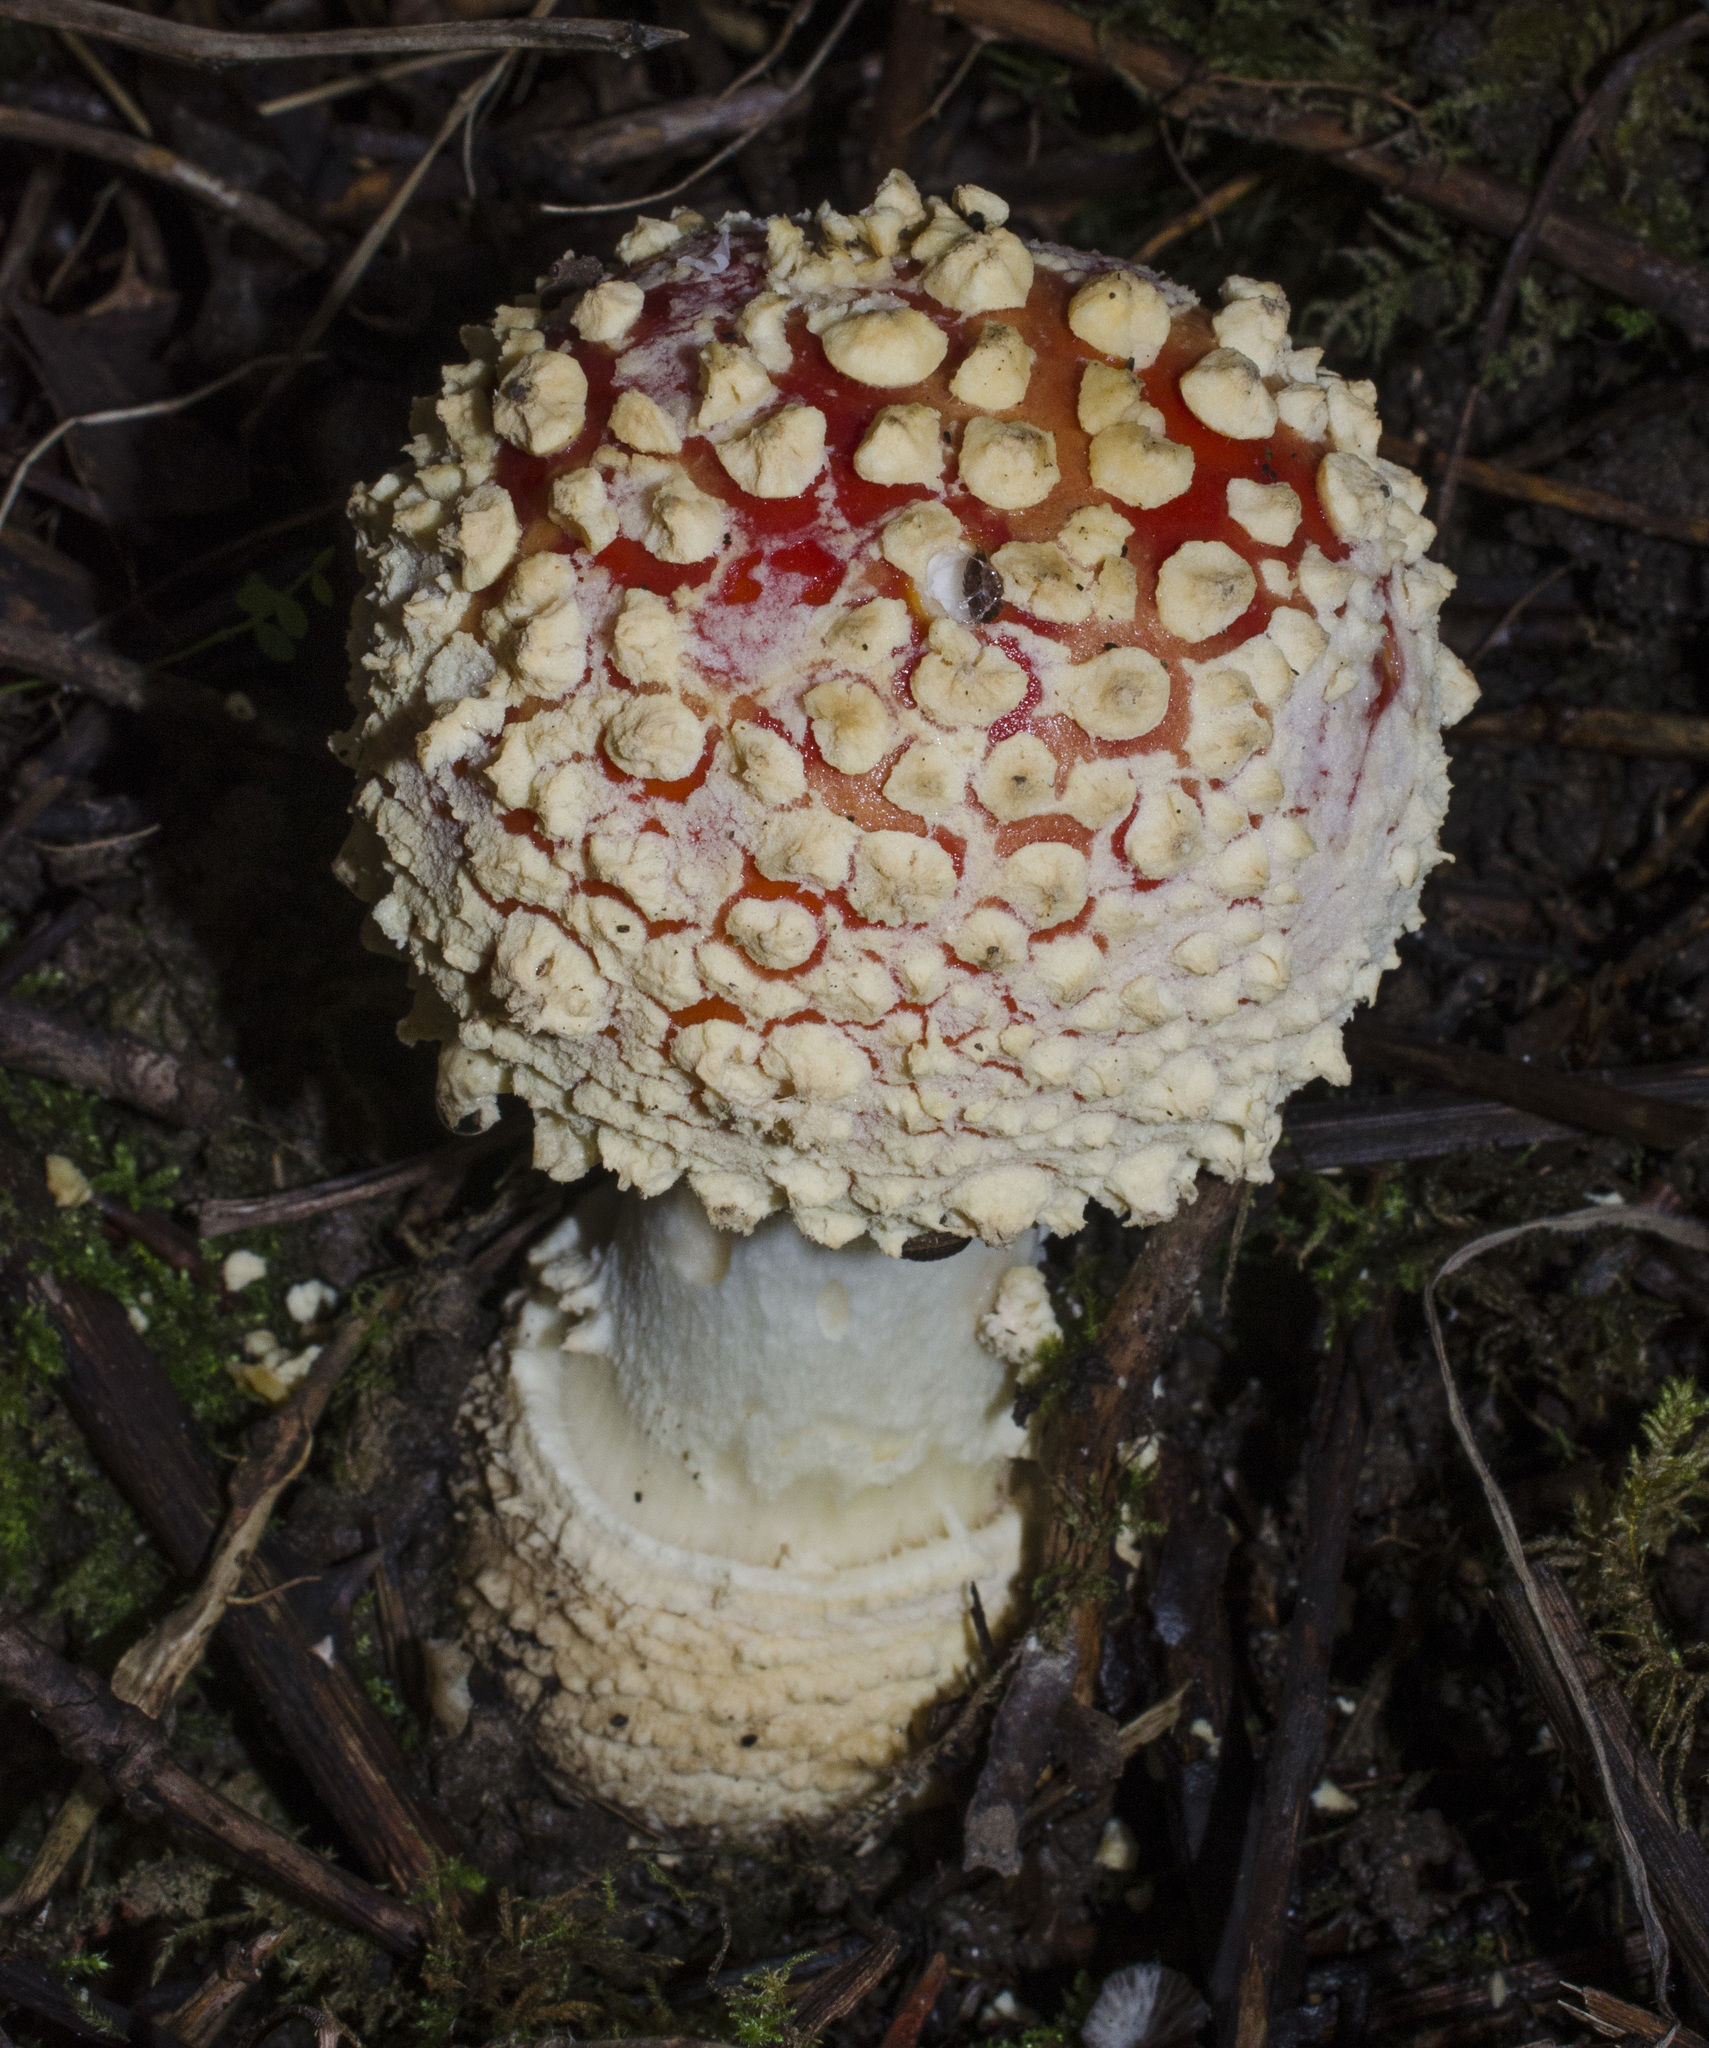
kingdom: Fungi
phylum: Basidiomycota
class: Agaricomycetes
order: Agaricales
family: Amanitaceae
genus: Amanita
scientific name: Amanita muscaria
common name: Fly agaric
